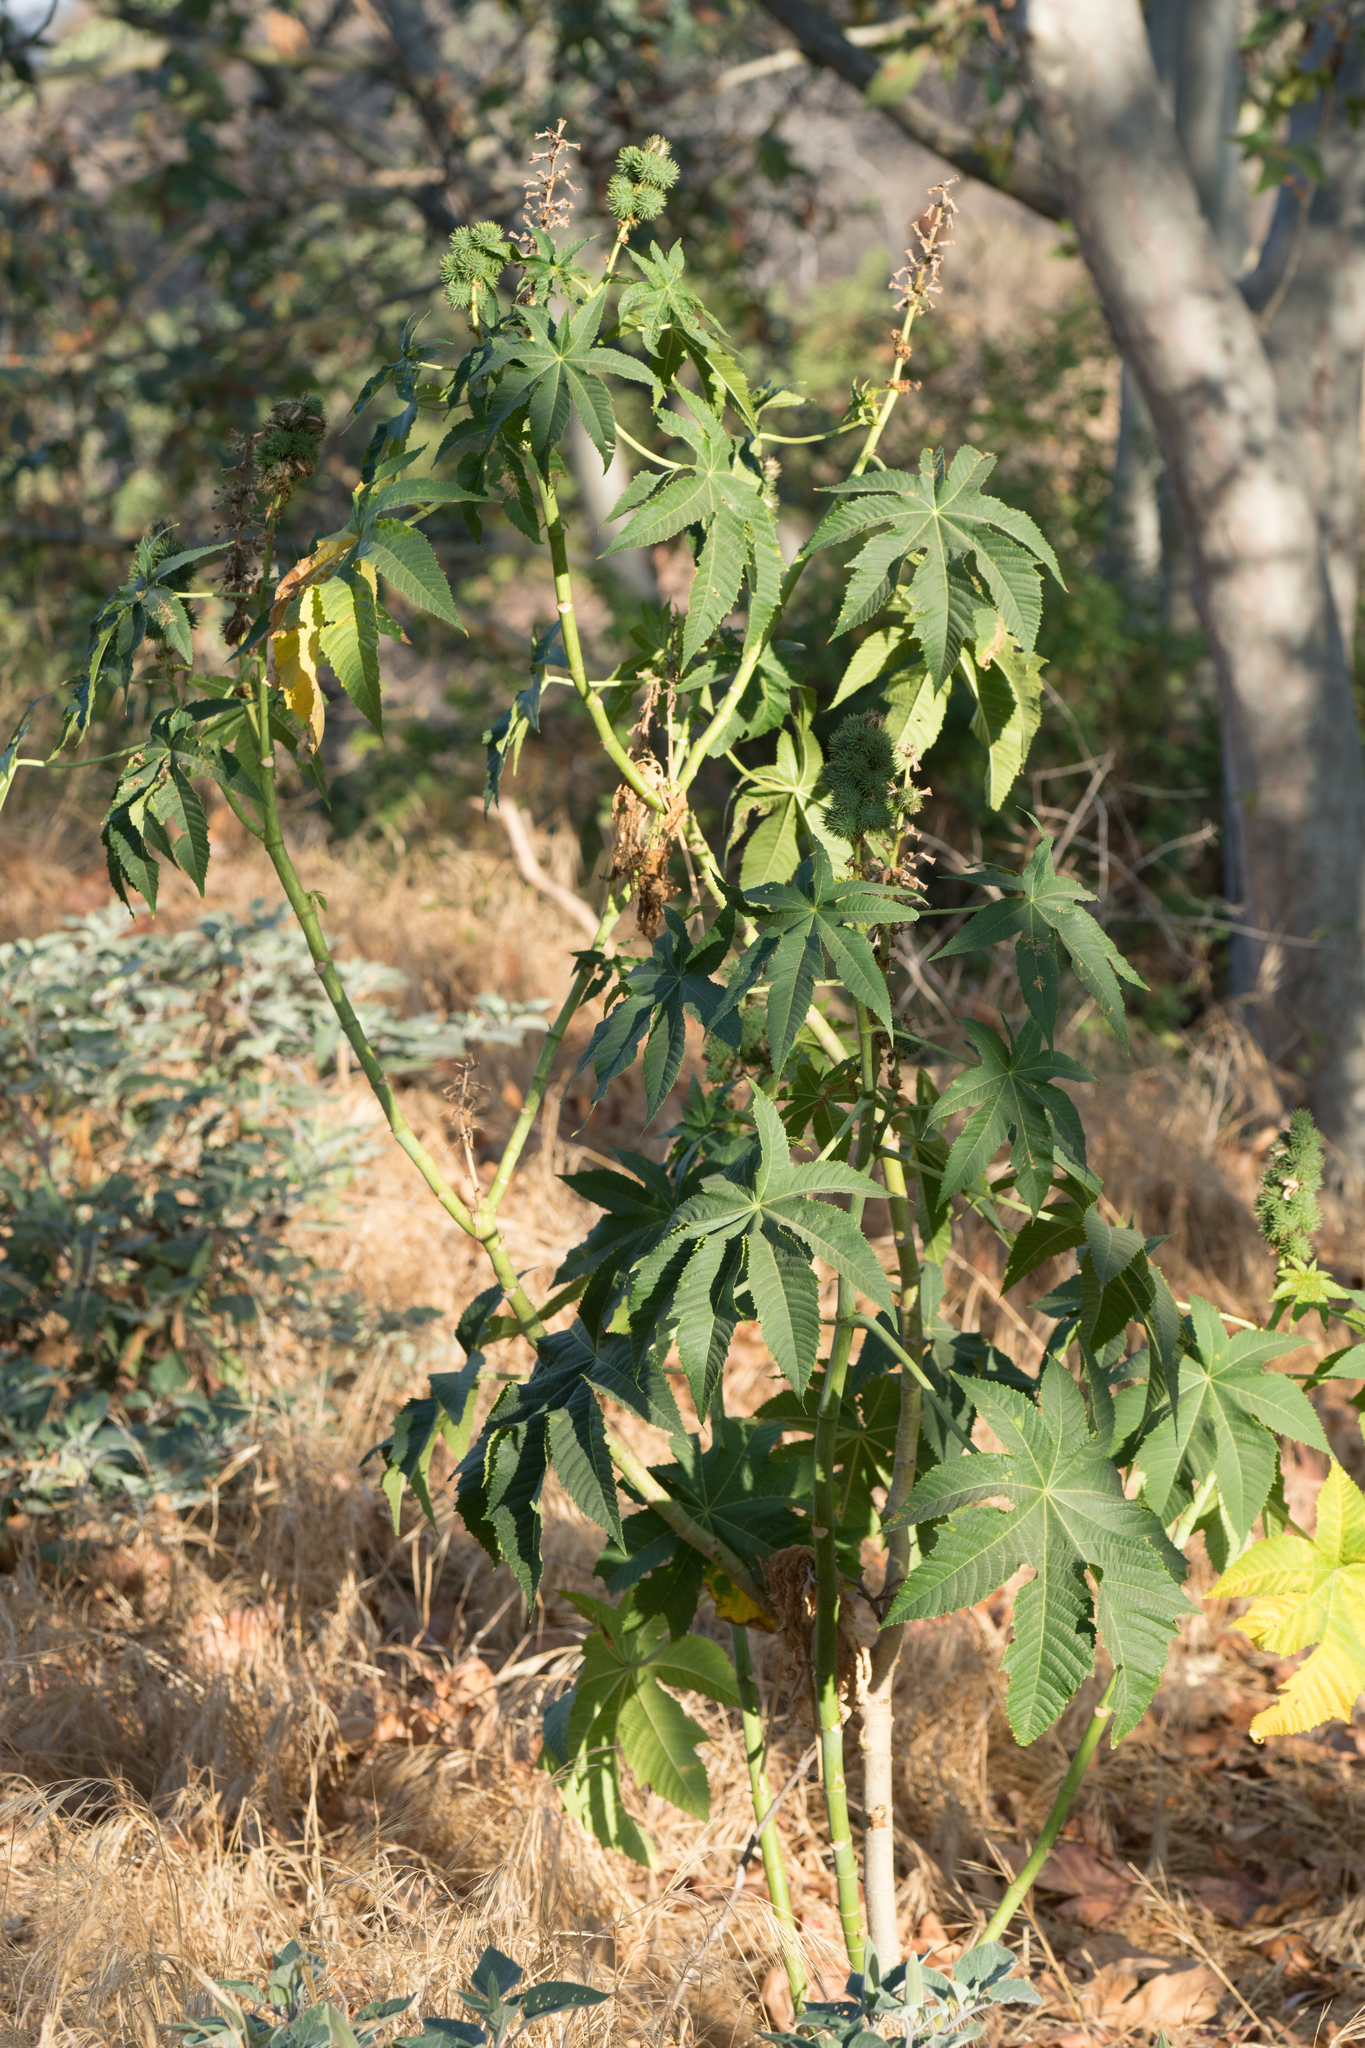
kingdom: Plantae
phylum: Tracheophyta
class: Magnoliopsida
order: Malpighiales
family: Euphorbiaceae
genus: Ricinus
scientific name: Ricinus communis
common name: Castor-oil-plant
